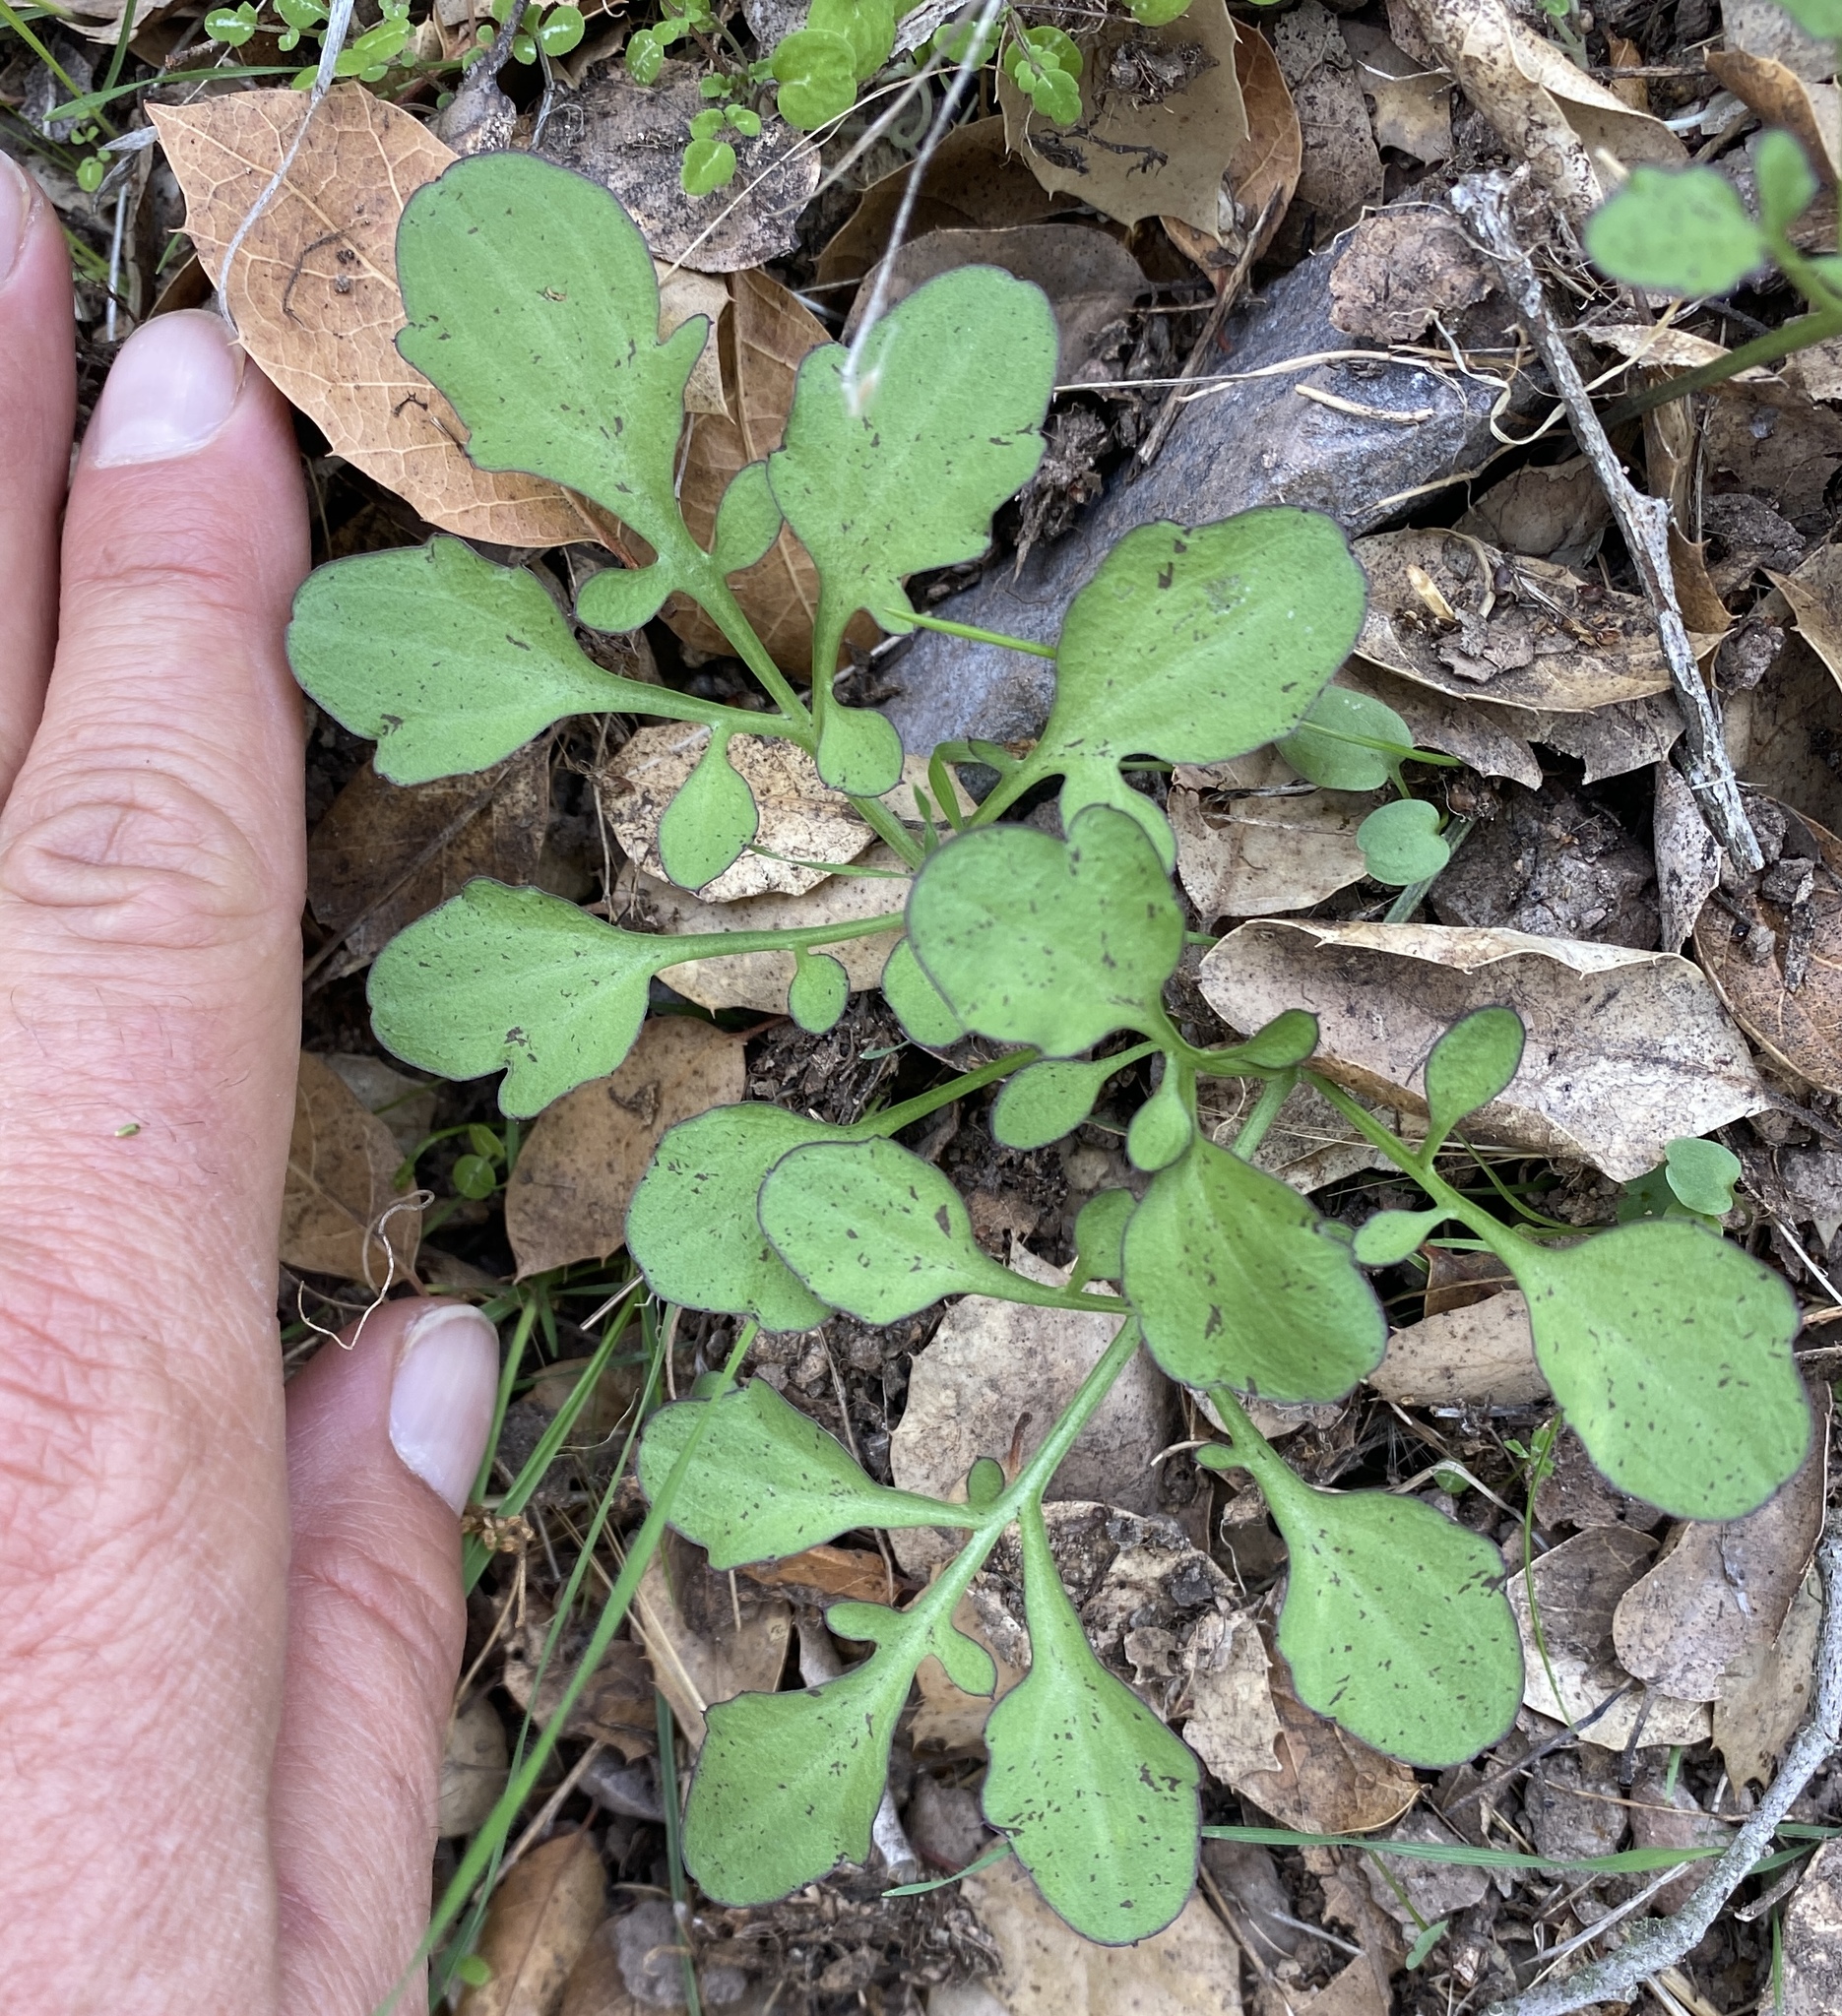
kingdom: Plantae
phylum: Tracheophyta
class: Magnoliopsida
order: Brassicales
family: Brassicaceae
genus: Cardamine
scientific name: Cardamine californica
